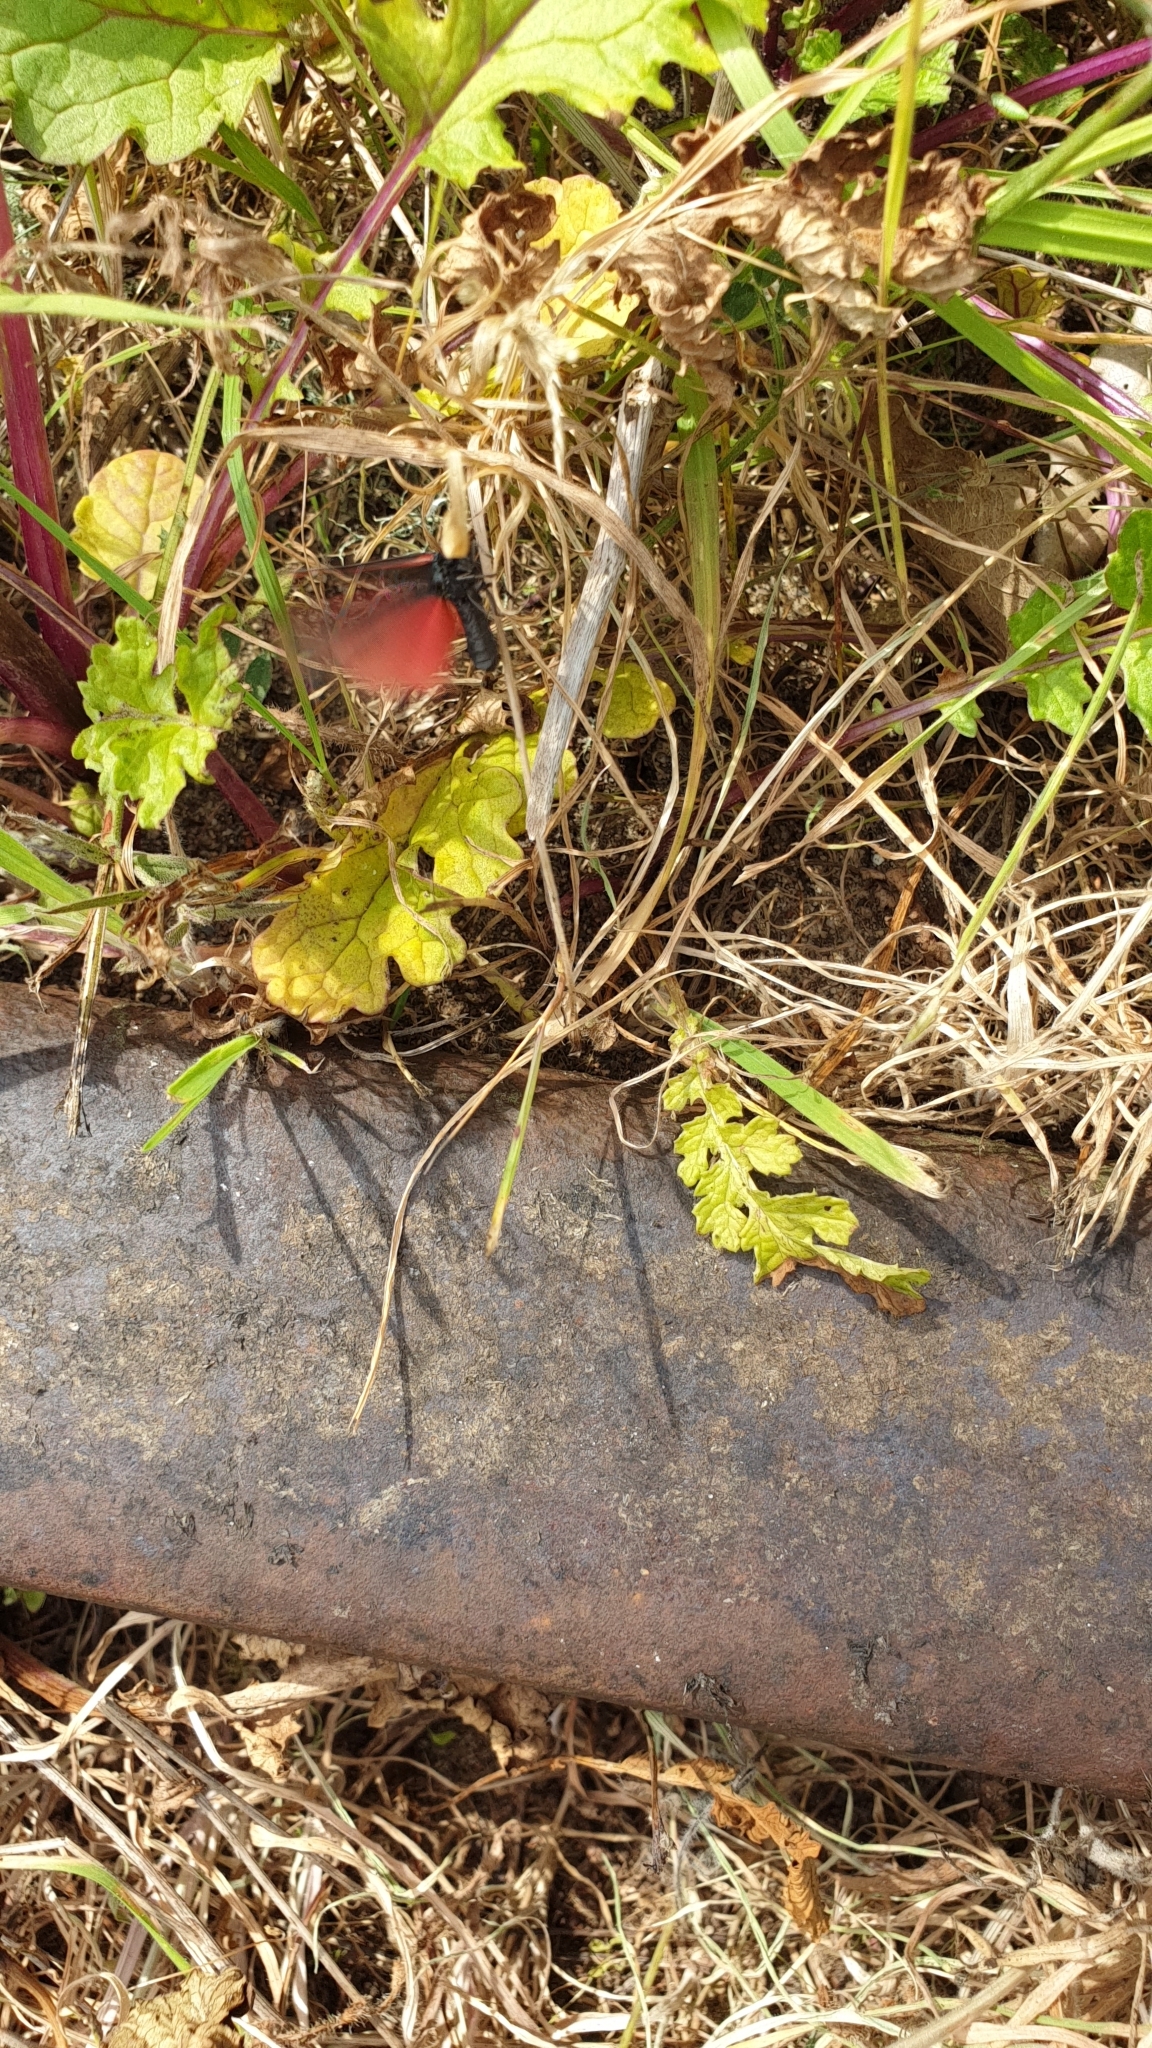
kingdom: Animalia
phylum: Arthropoda
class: Insecta
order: Lepidoptera
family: Erebidae
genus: Tyria
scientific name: Tyria jacobaeae
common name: Cinnabar
